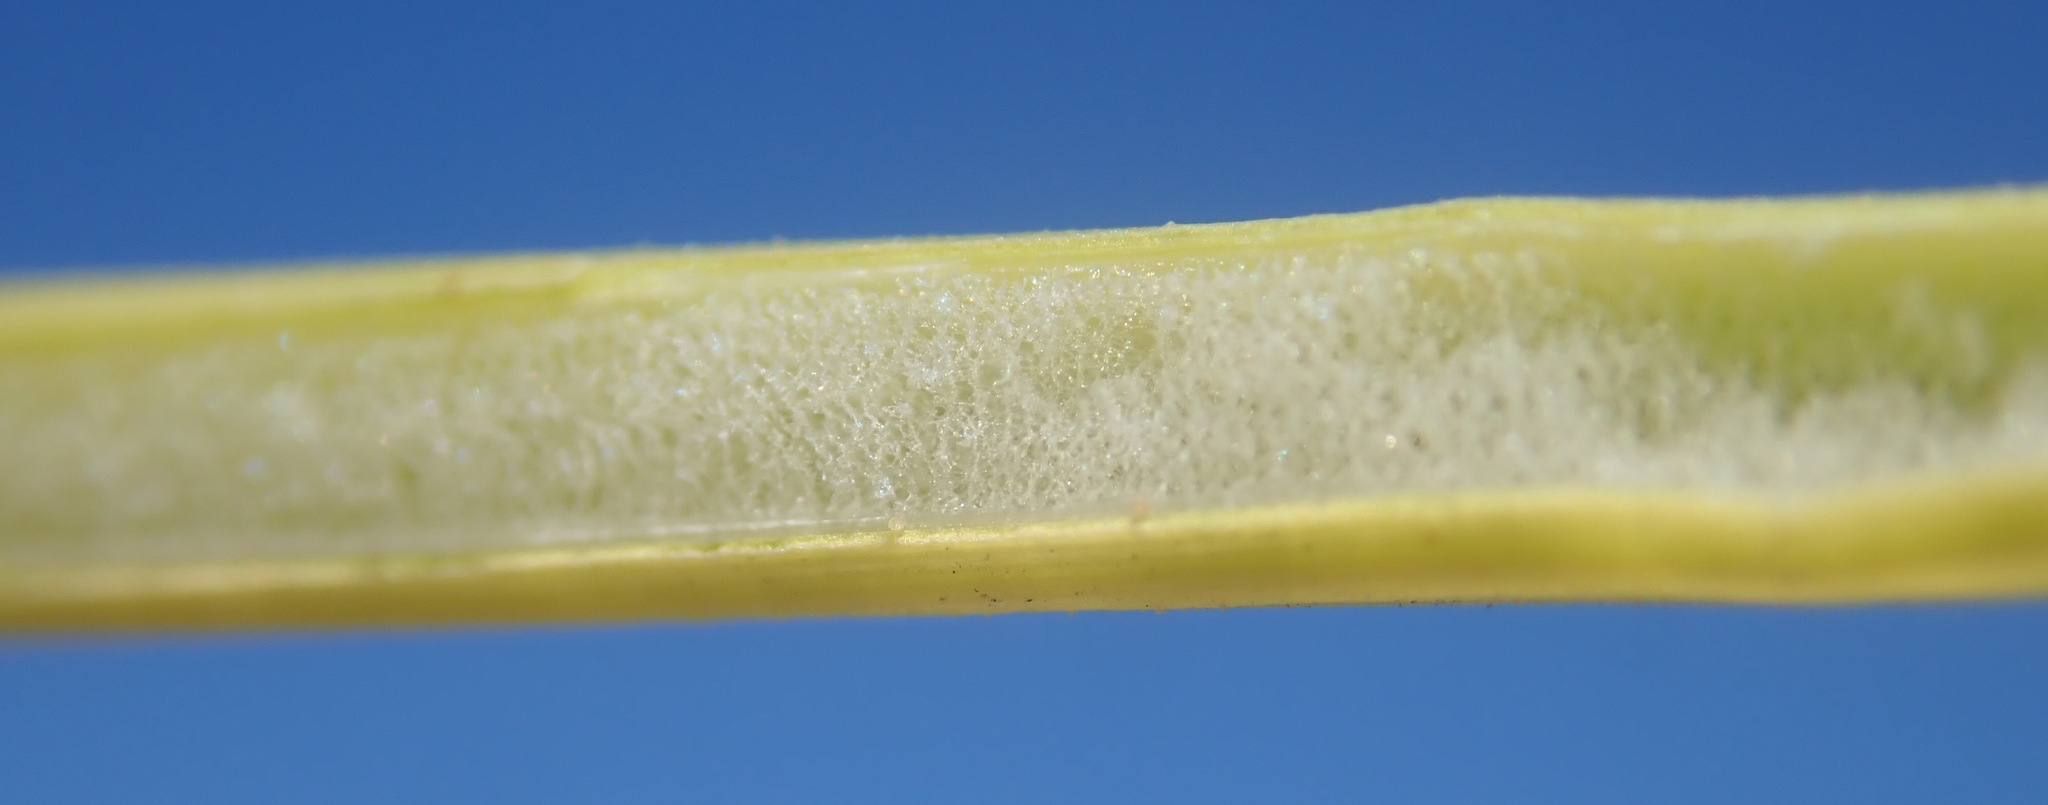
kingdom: Plantae
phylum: Tracheophyta
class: Liliopsida
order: Poales
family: Juncaceae
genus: Juncus
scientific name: Juncus conglomeratus
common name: Compact rush
